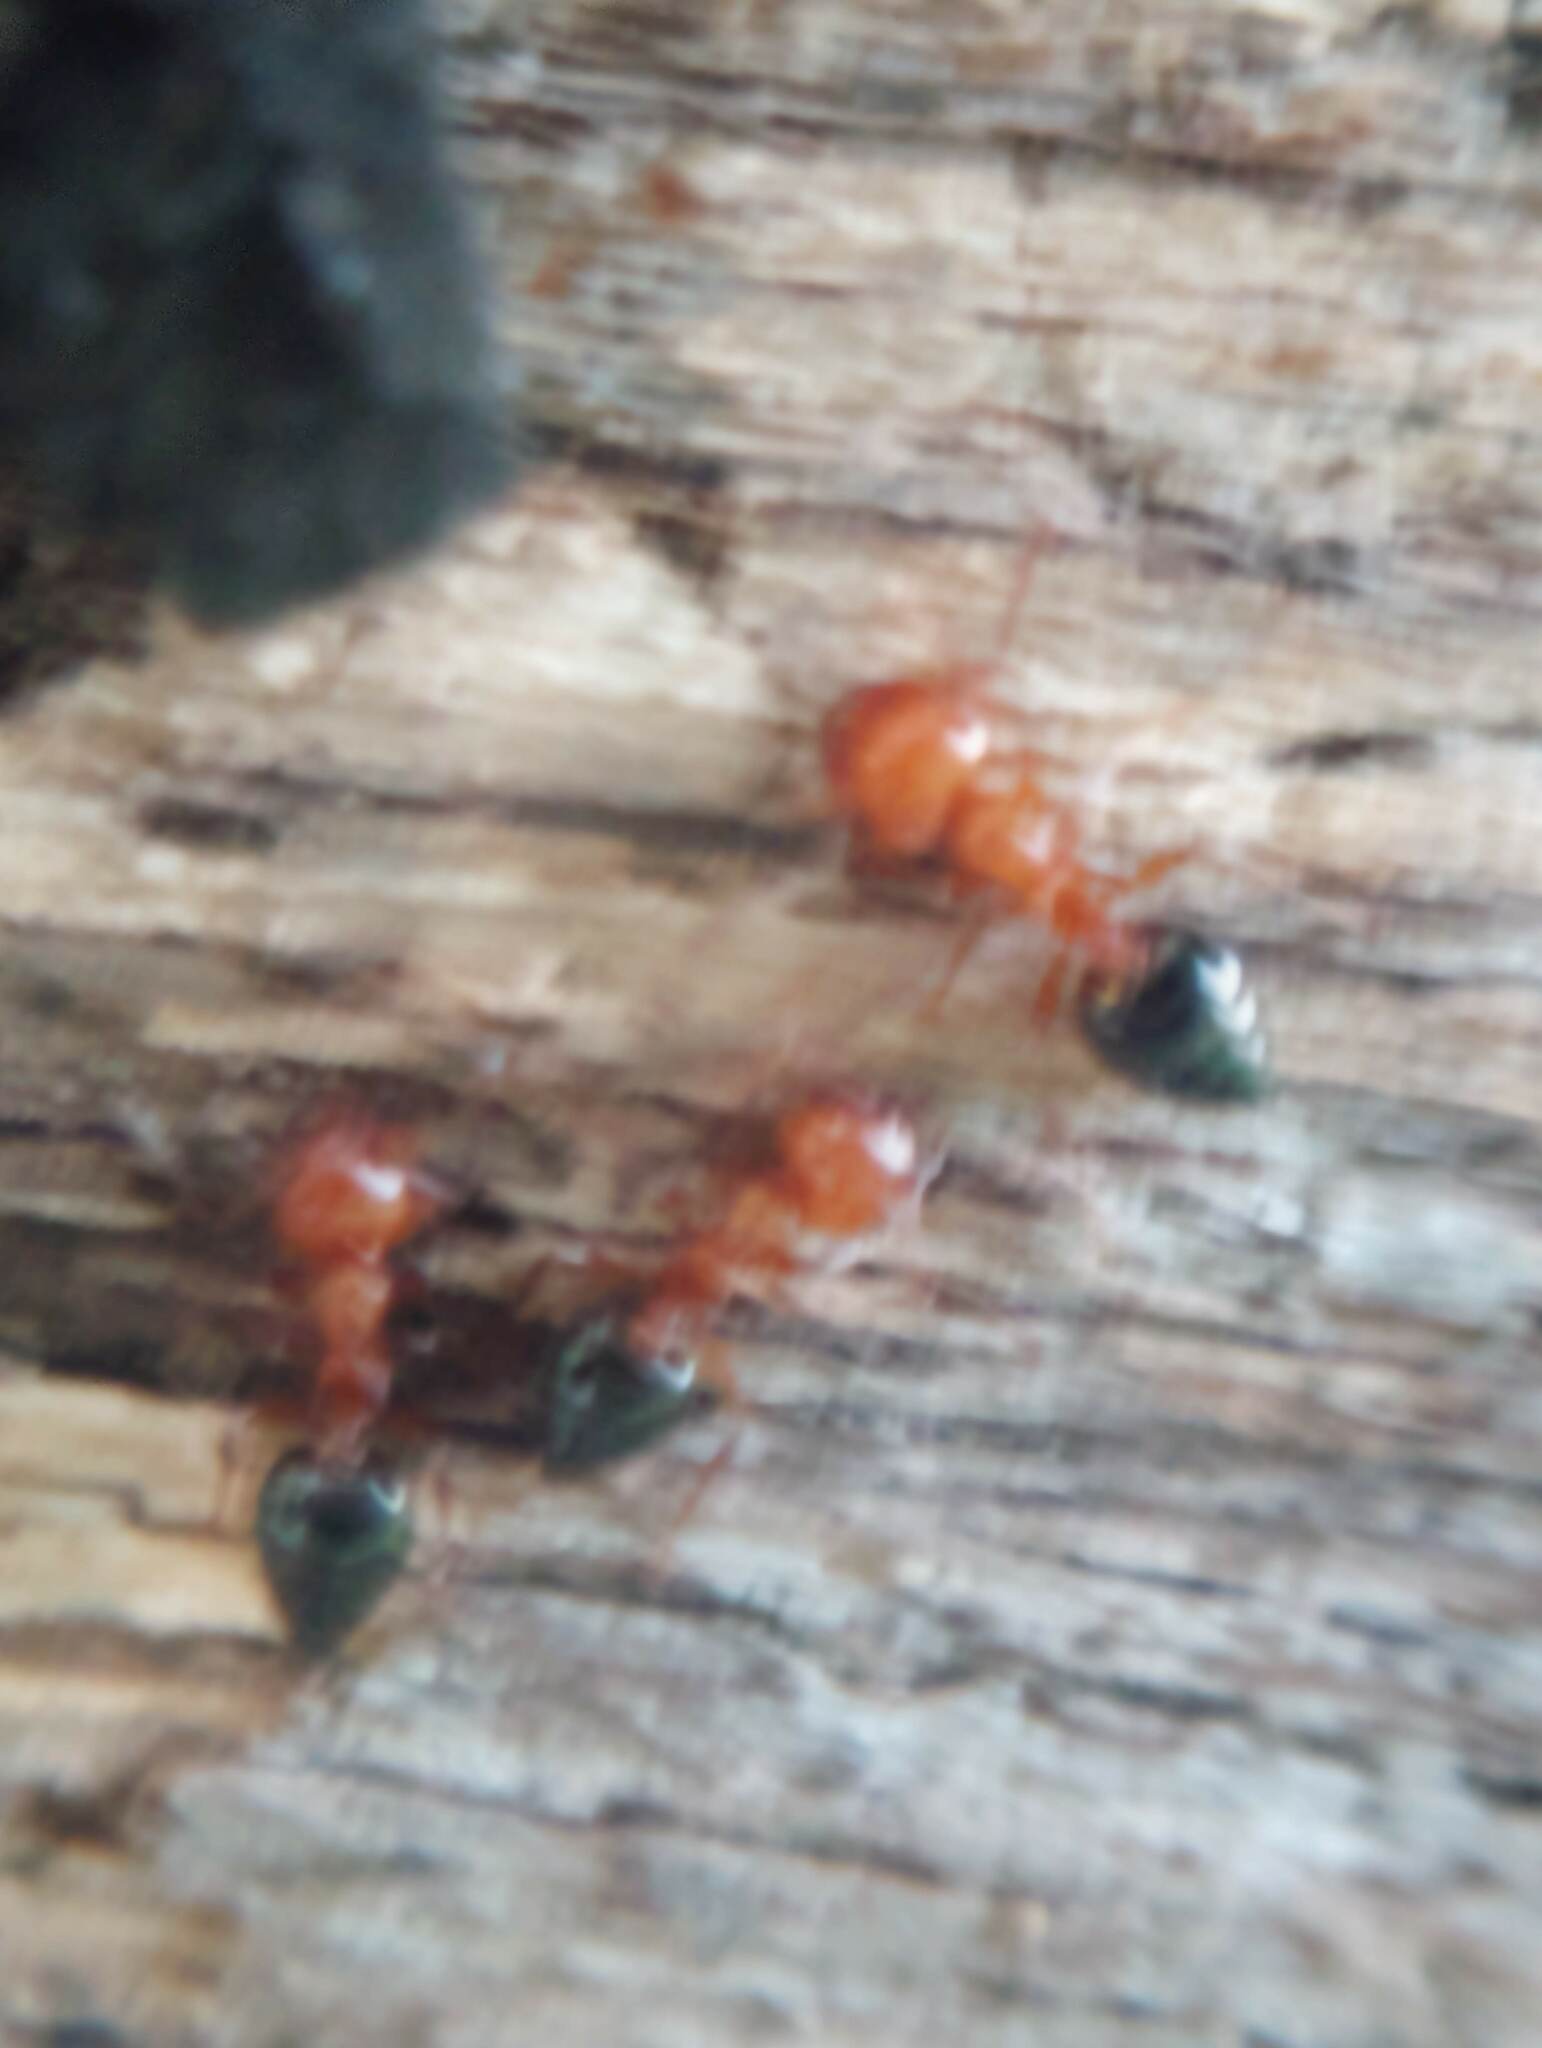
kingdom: Animalia
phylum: Arthropoda
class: Insecta
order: Hymenoptera
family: Formicidae
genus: Crematogaster
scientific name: Crematogaster laeviuscula
